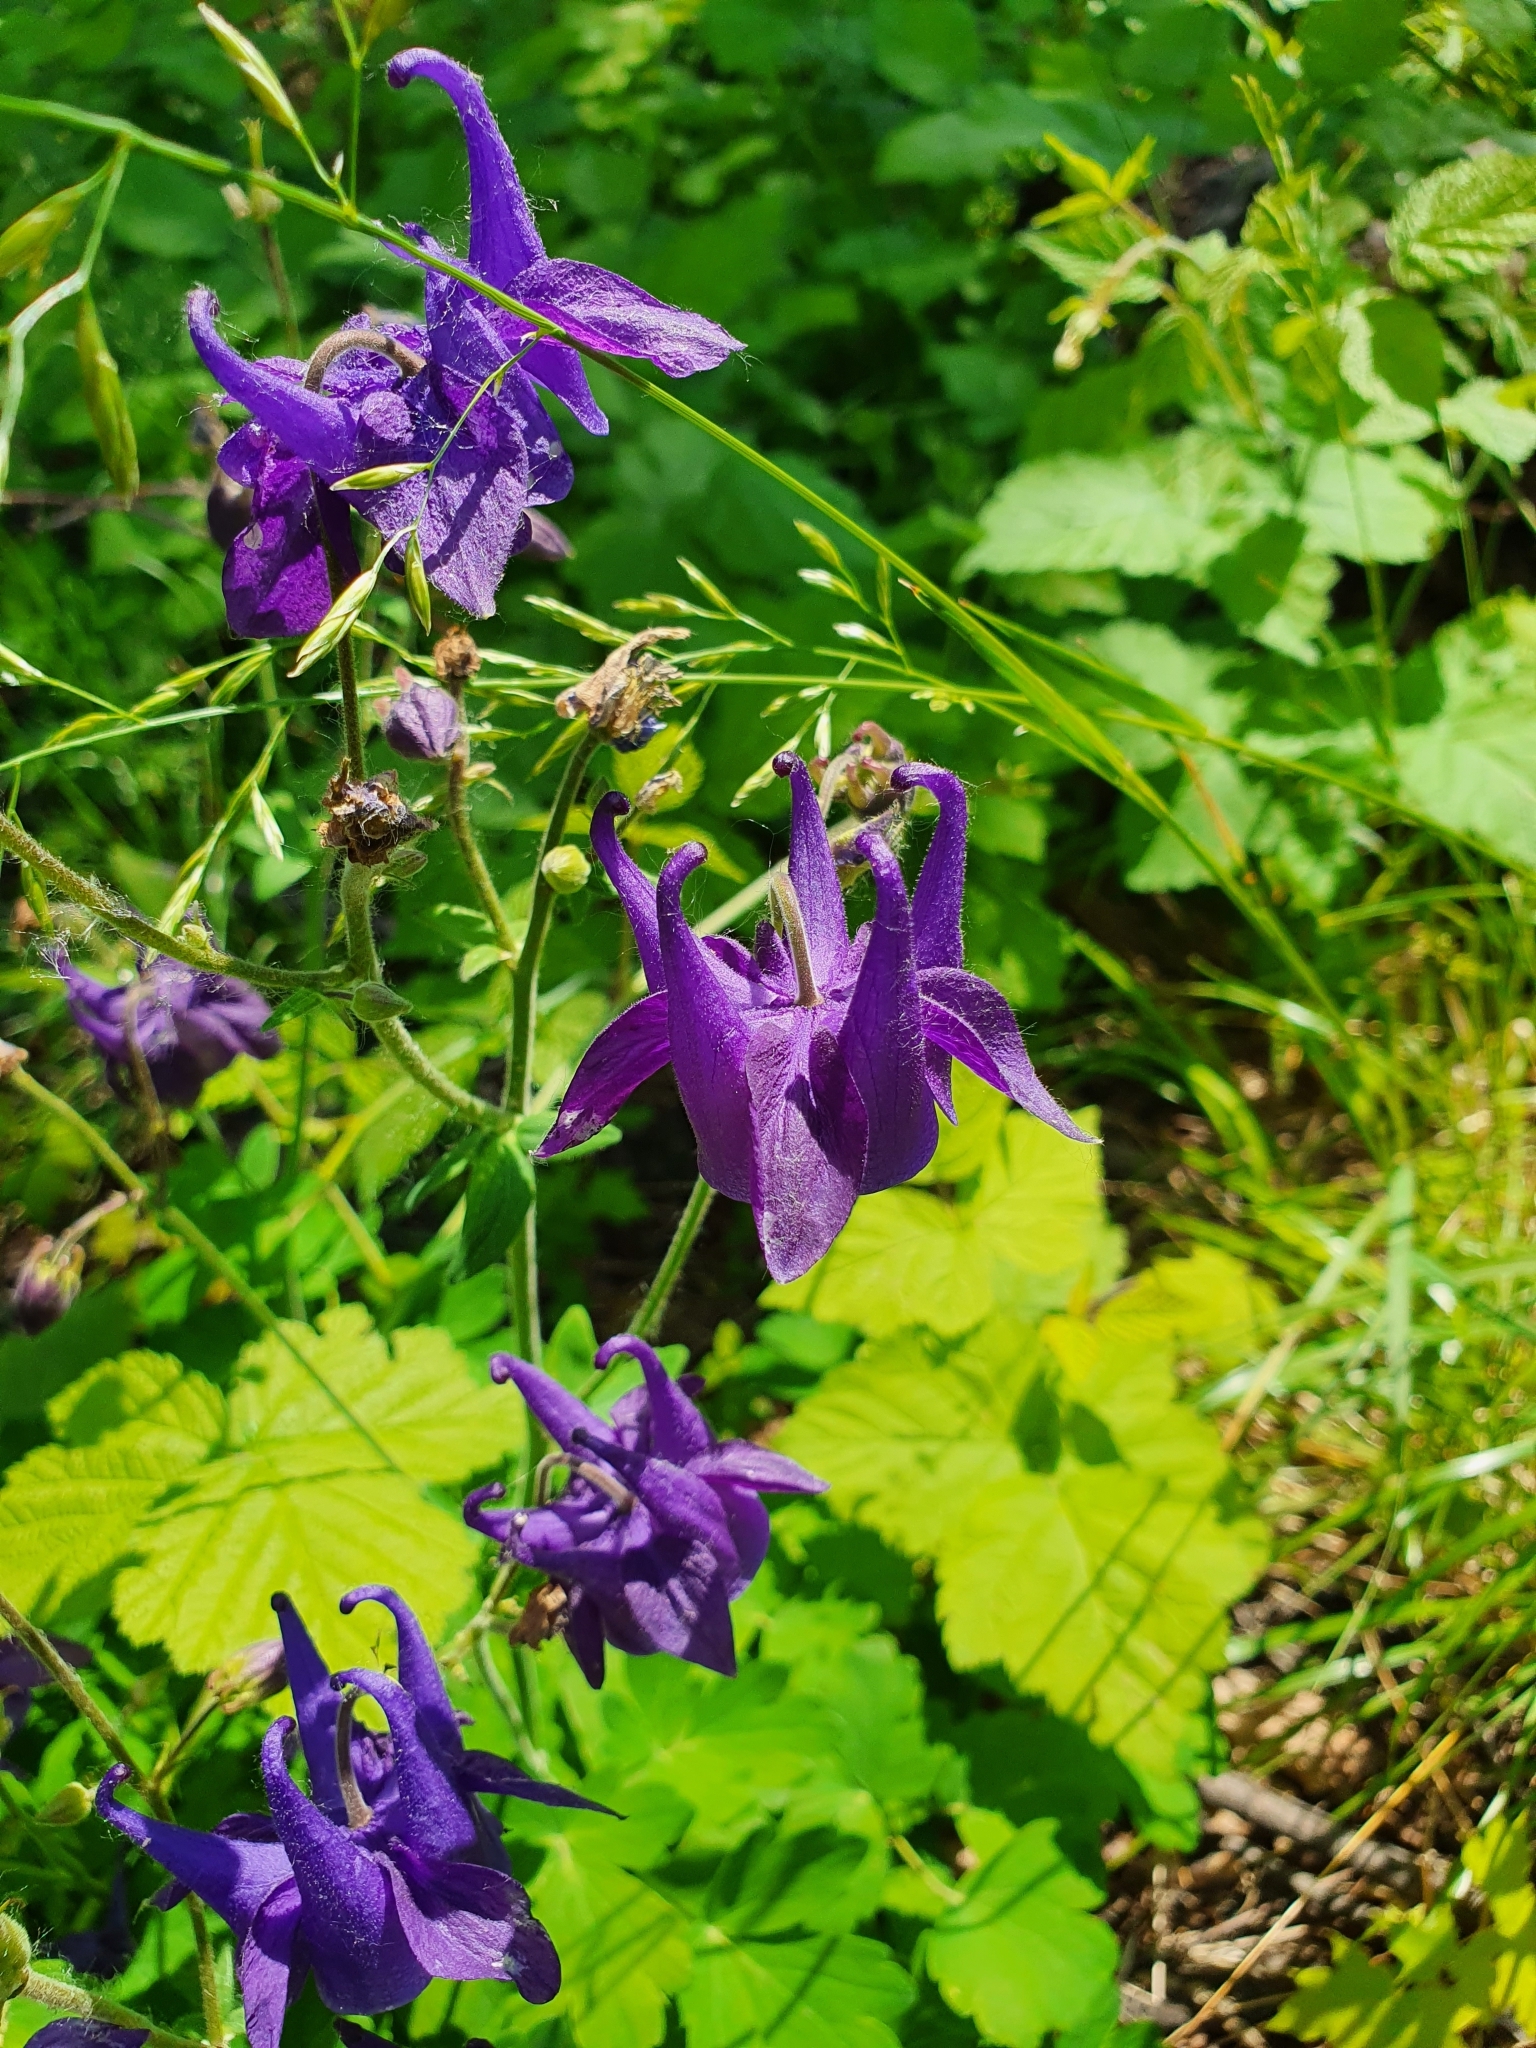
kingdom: Plantae
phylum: Tracheophyta
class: Magnoliopsida
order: Ranunculales
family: Ranunculaceae
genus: Aquilegia
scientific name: Aquilegia vulgaris
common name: Columbine
